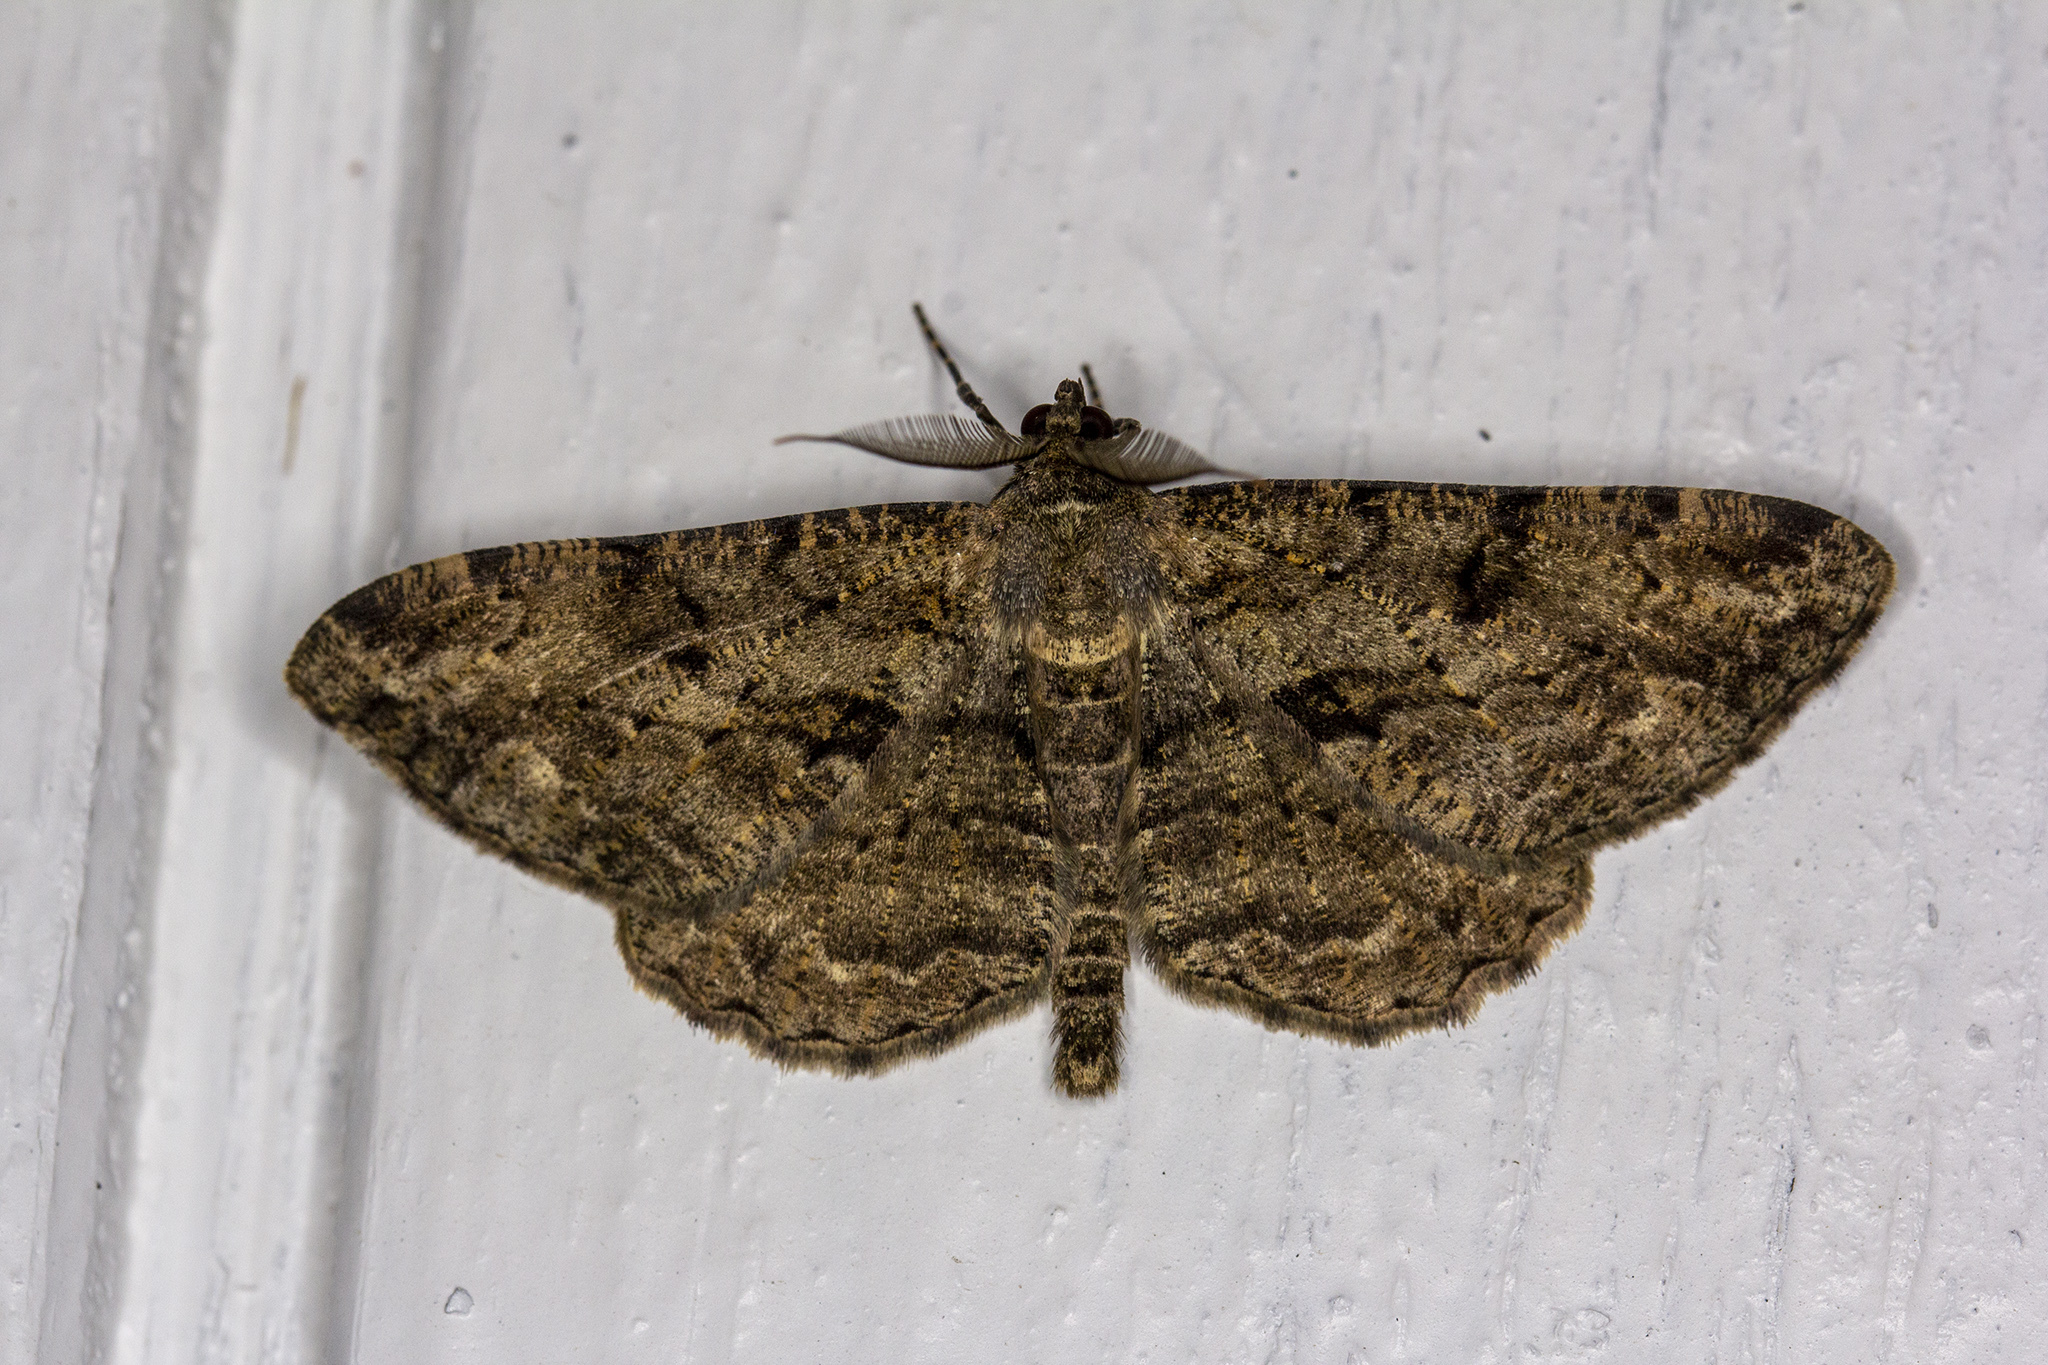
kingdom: Animalia
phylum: Arthropoda
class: Insecta
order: Lepidoptera
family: Geometridae
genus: Peribatodes
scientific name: Peribatodes rhomboidaria
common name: Willow beauty
